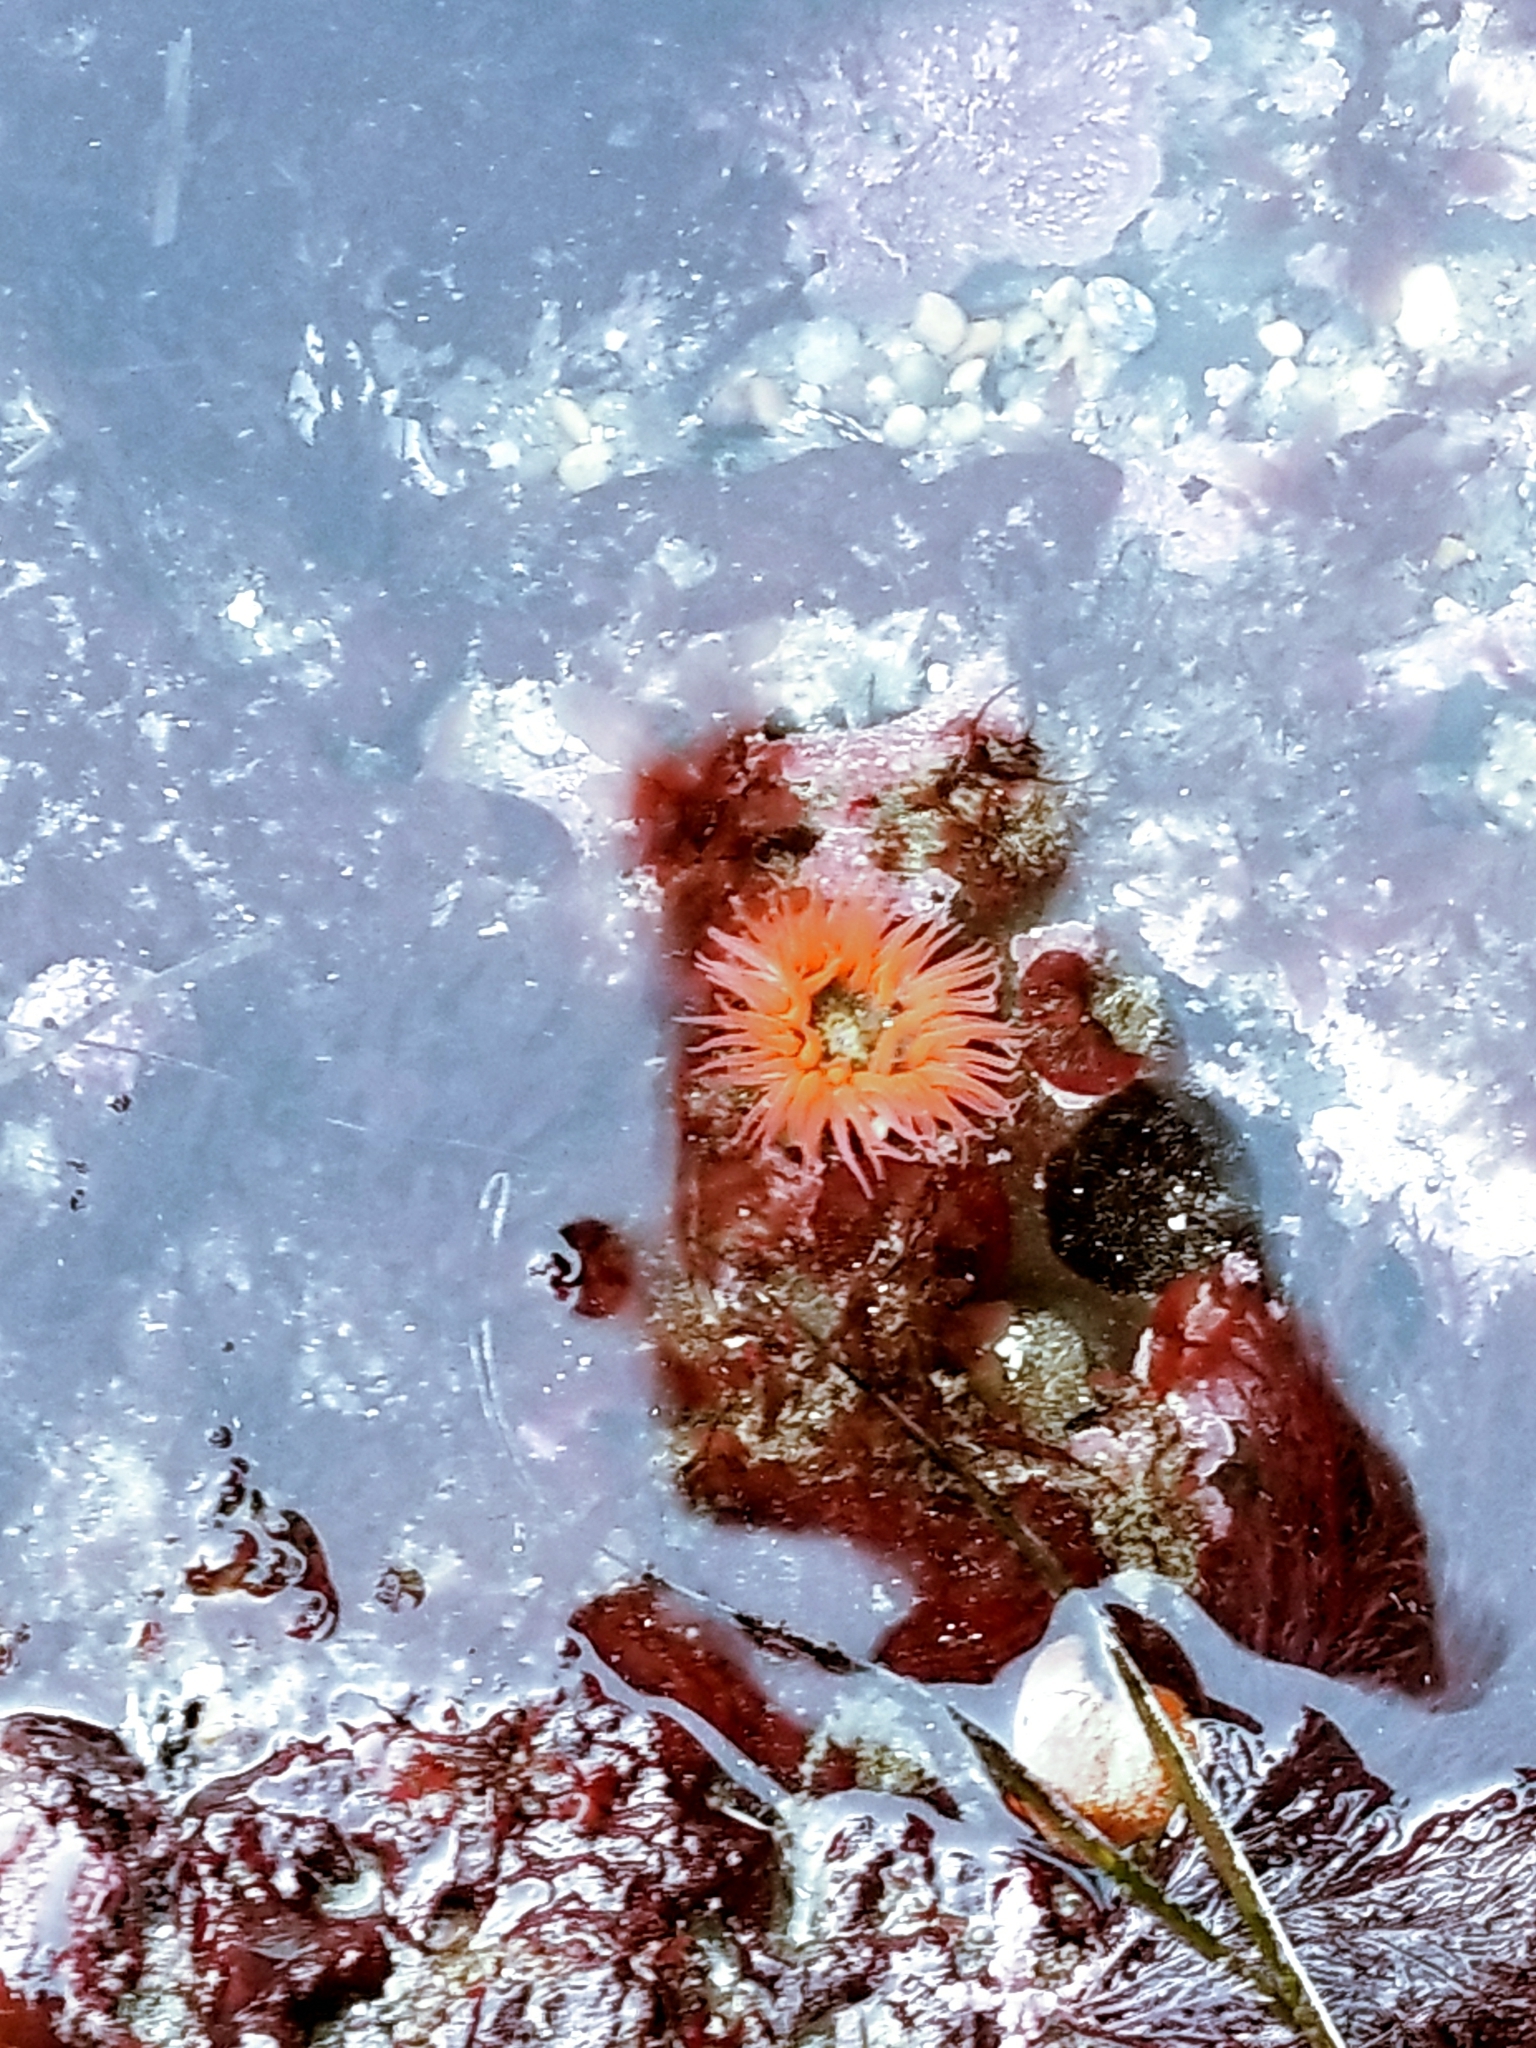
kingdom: Animalia
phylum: Cnidaria
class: Anthozoa
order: Actiniaria
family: Actiniidae
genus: Anthopleura
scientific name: Anthopleura artemisia
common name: Buried sea anemone
